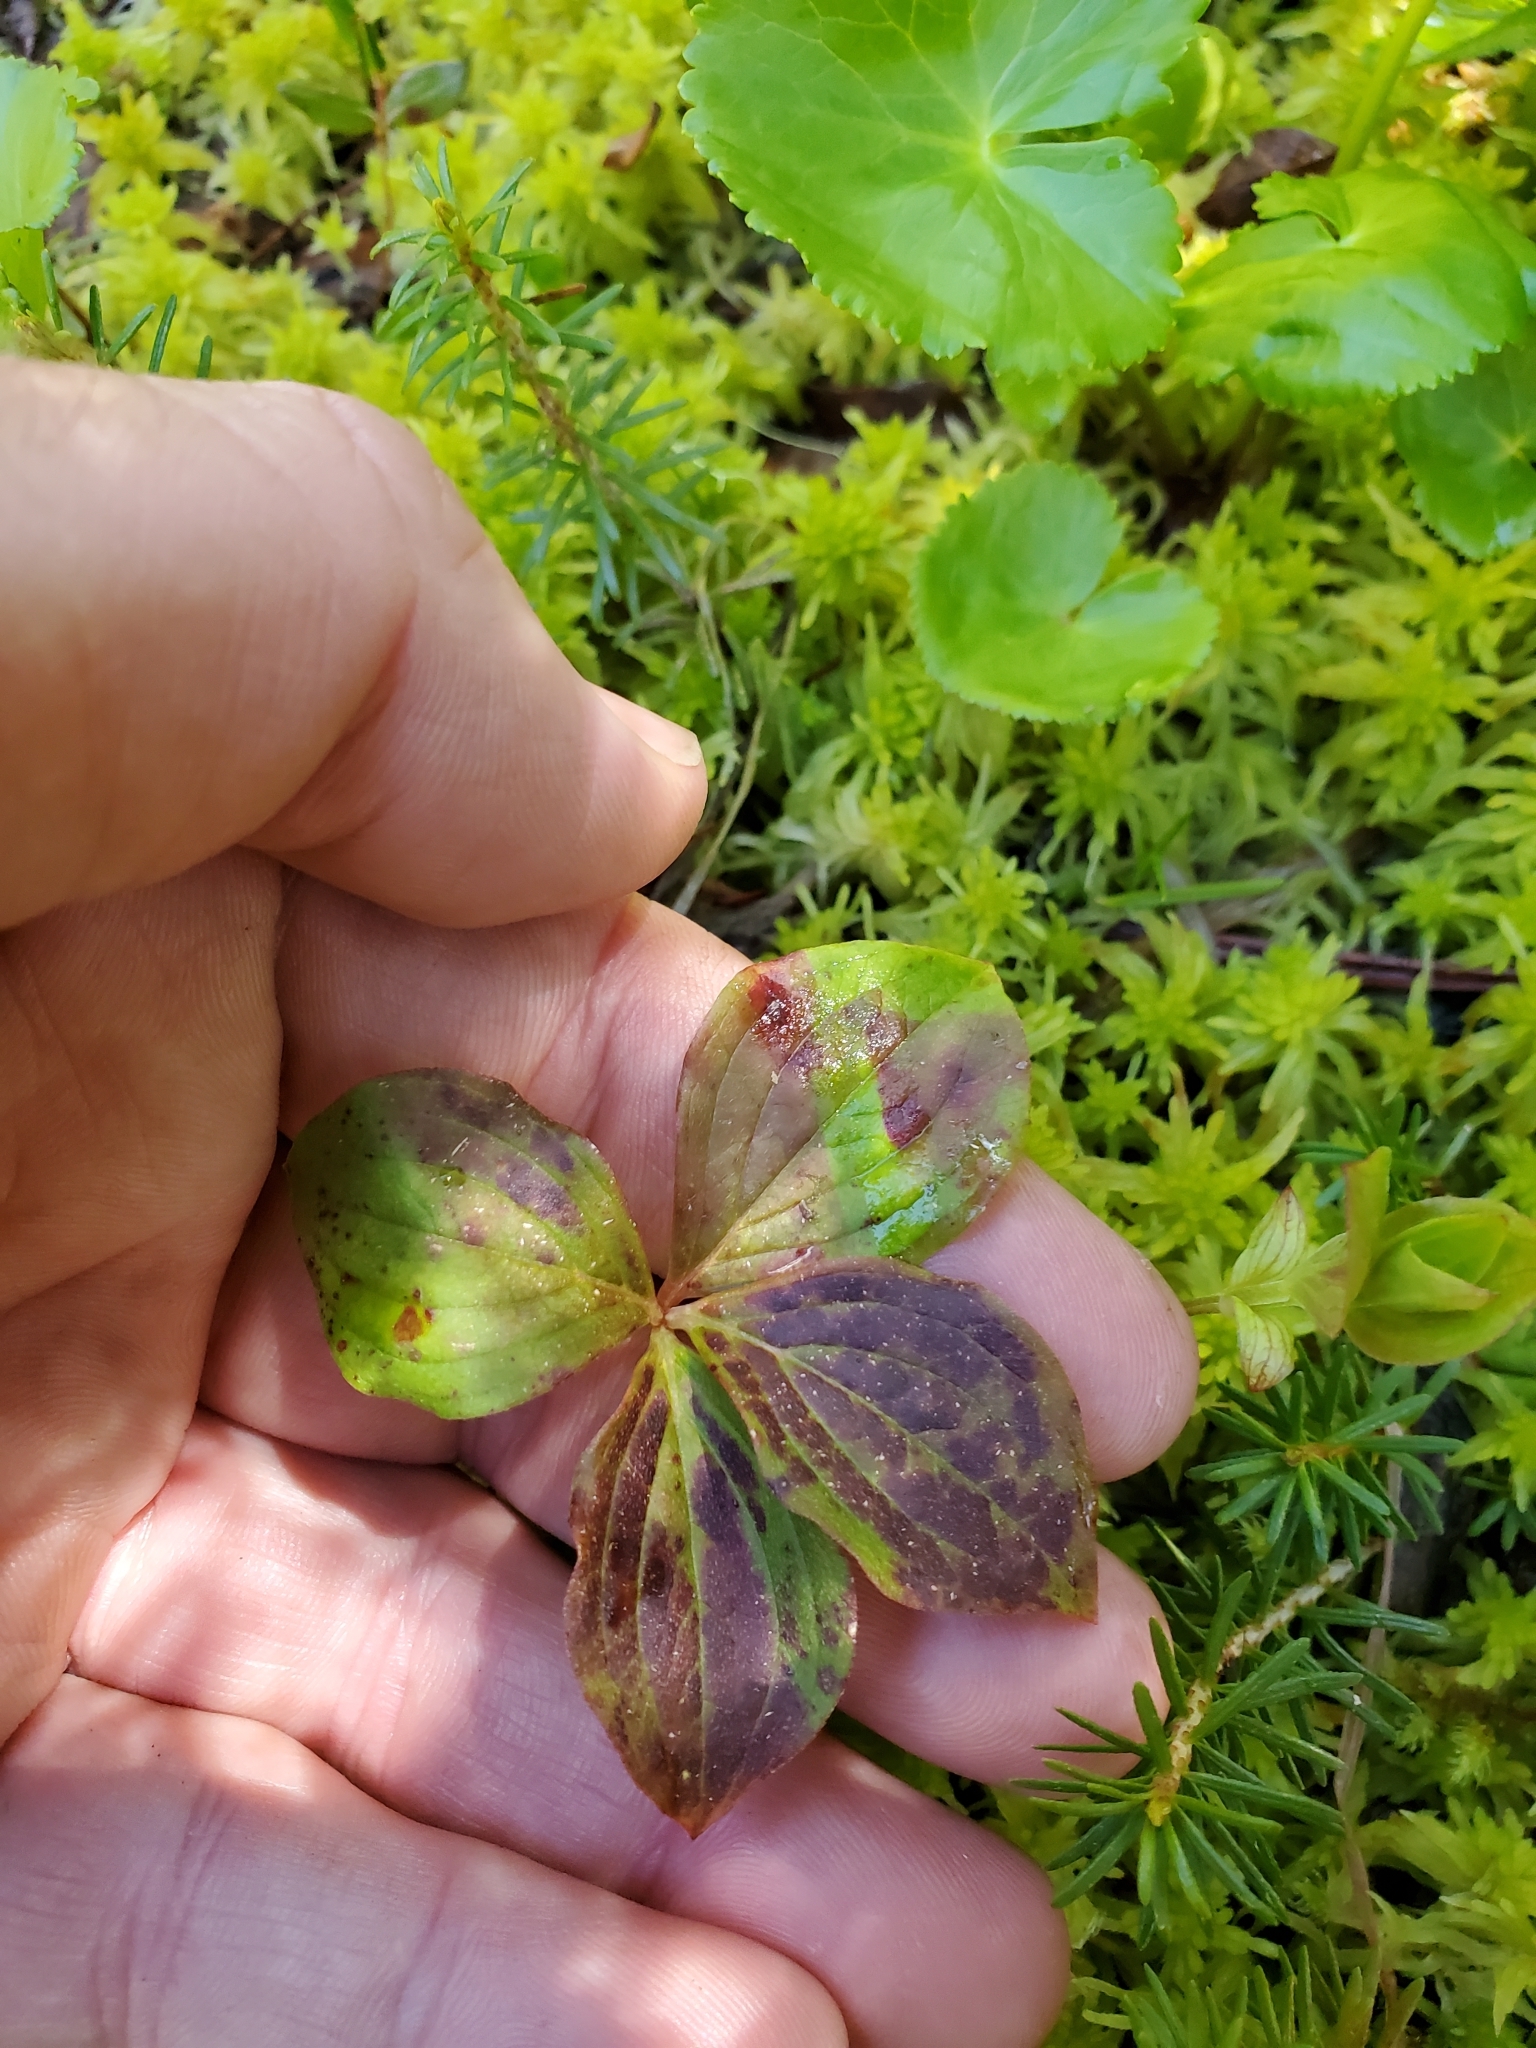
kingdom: Plantae
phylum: Tracheophyta
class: Magnoliopsida
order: Cornales
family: Cornaceae
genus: Cornus
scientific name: Cornus unalaschkensis
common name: Alaska bunchberry
